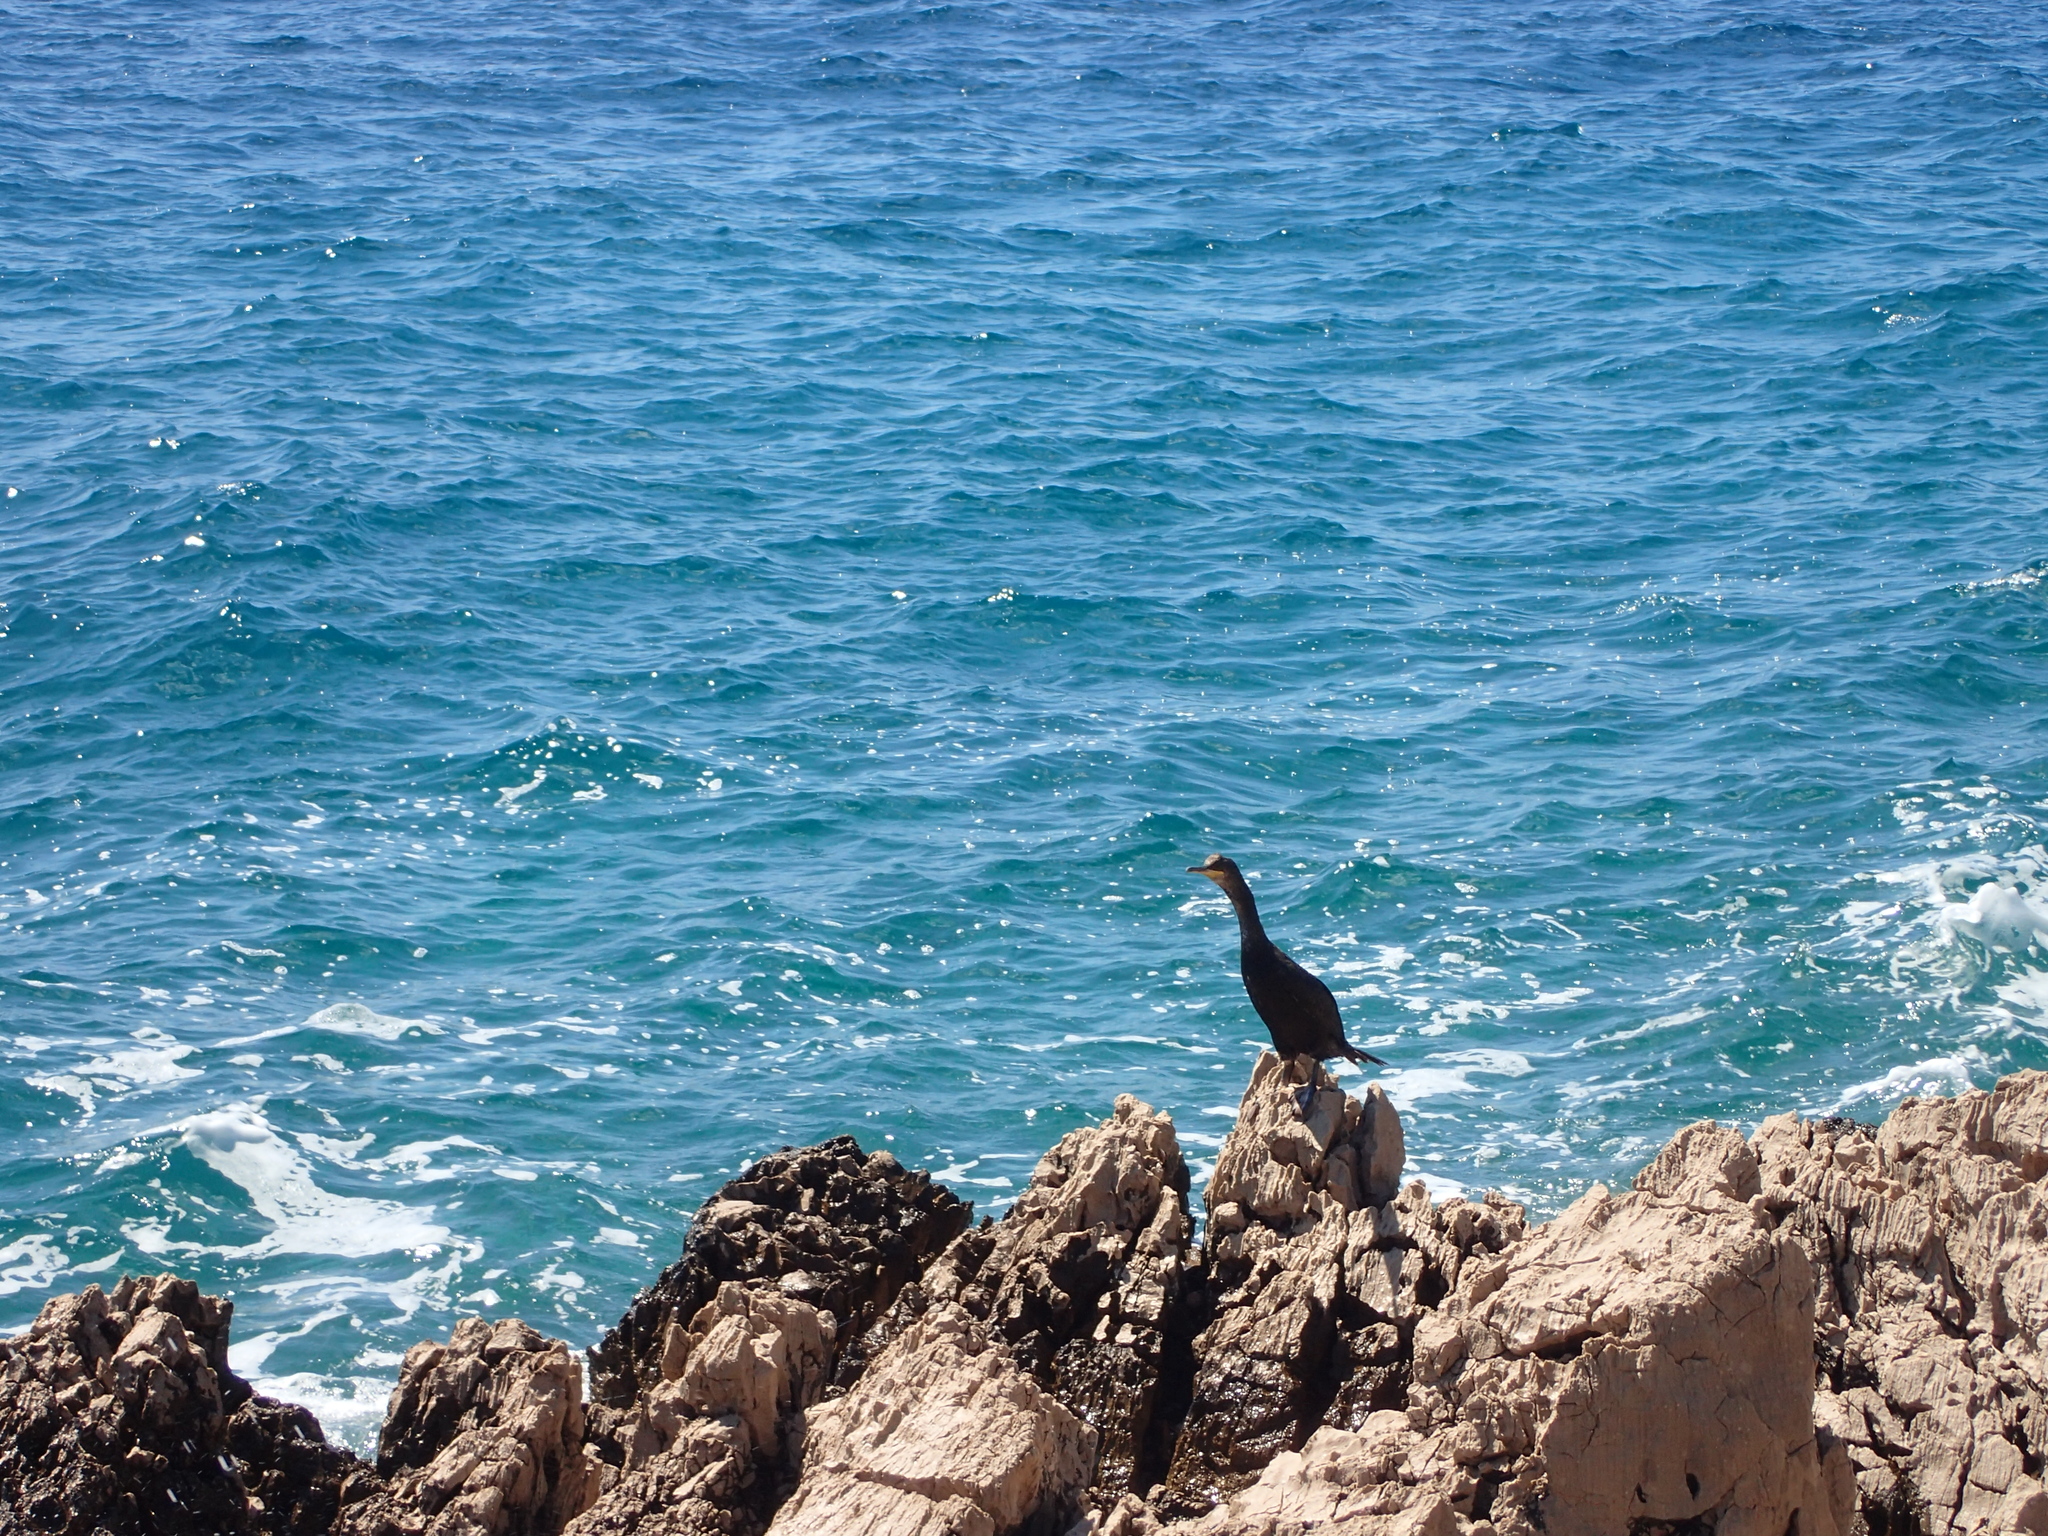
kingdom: Animalia
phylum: Chordata
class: Aves
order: Suliformes
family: Phalacrocoracidae
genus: Phalacrocorax
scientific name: Phalacrocorax aristotelis
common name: European shag
